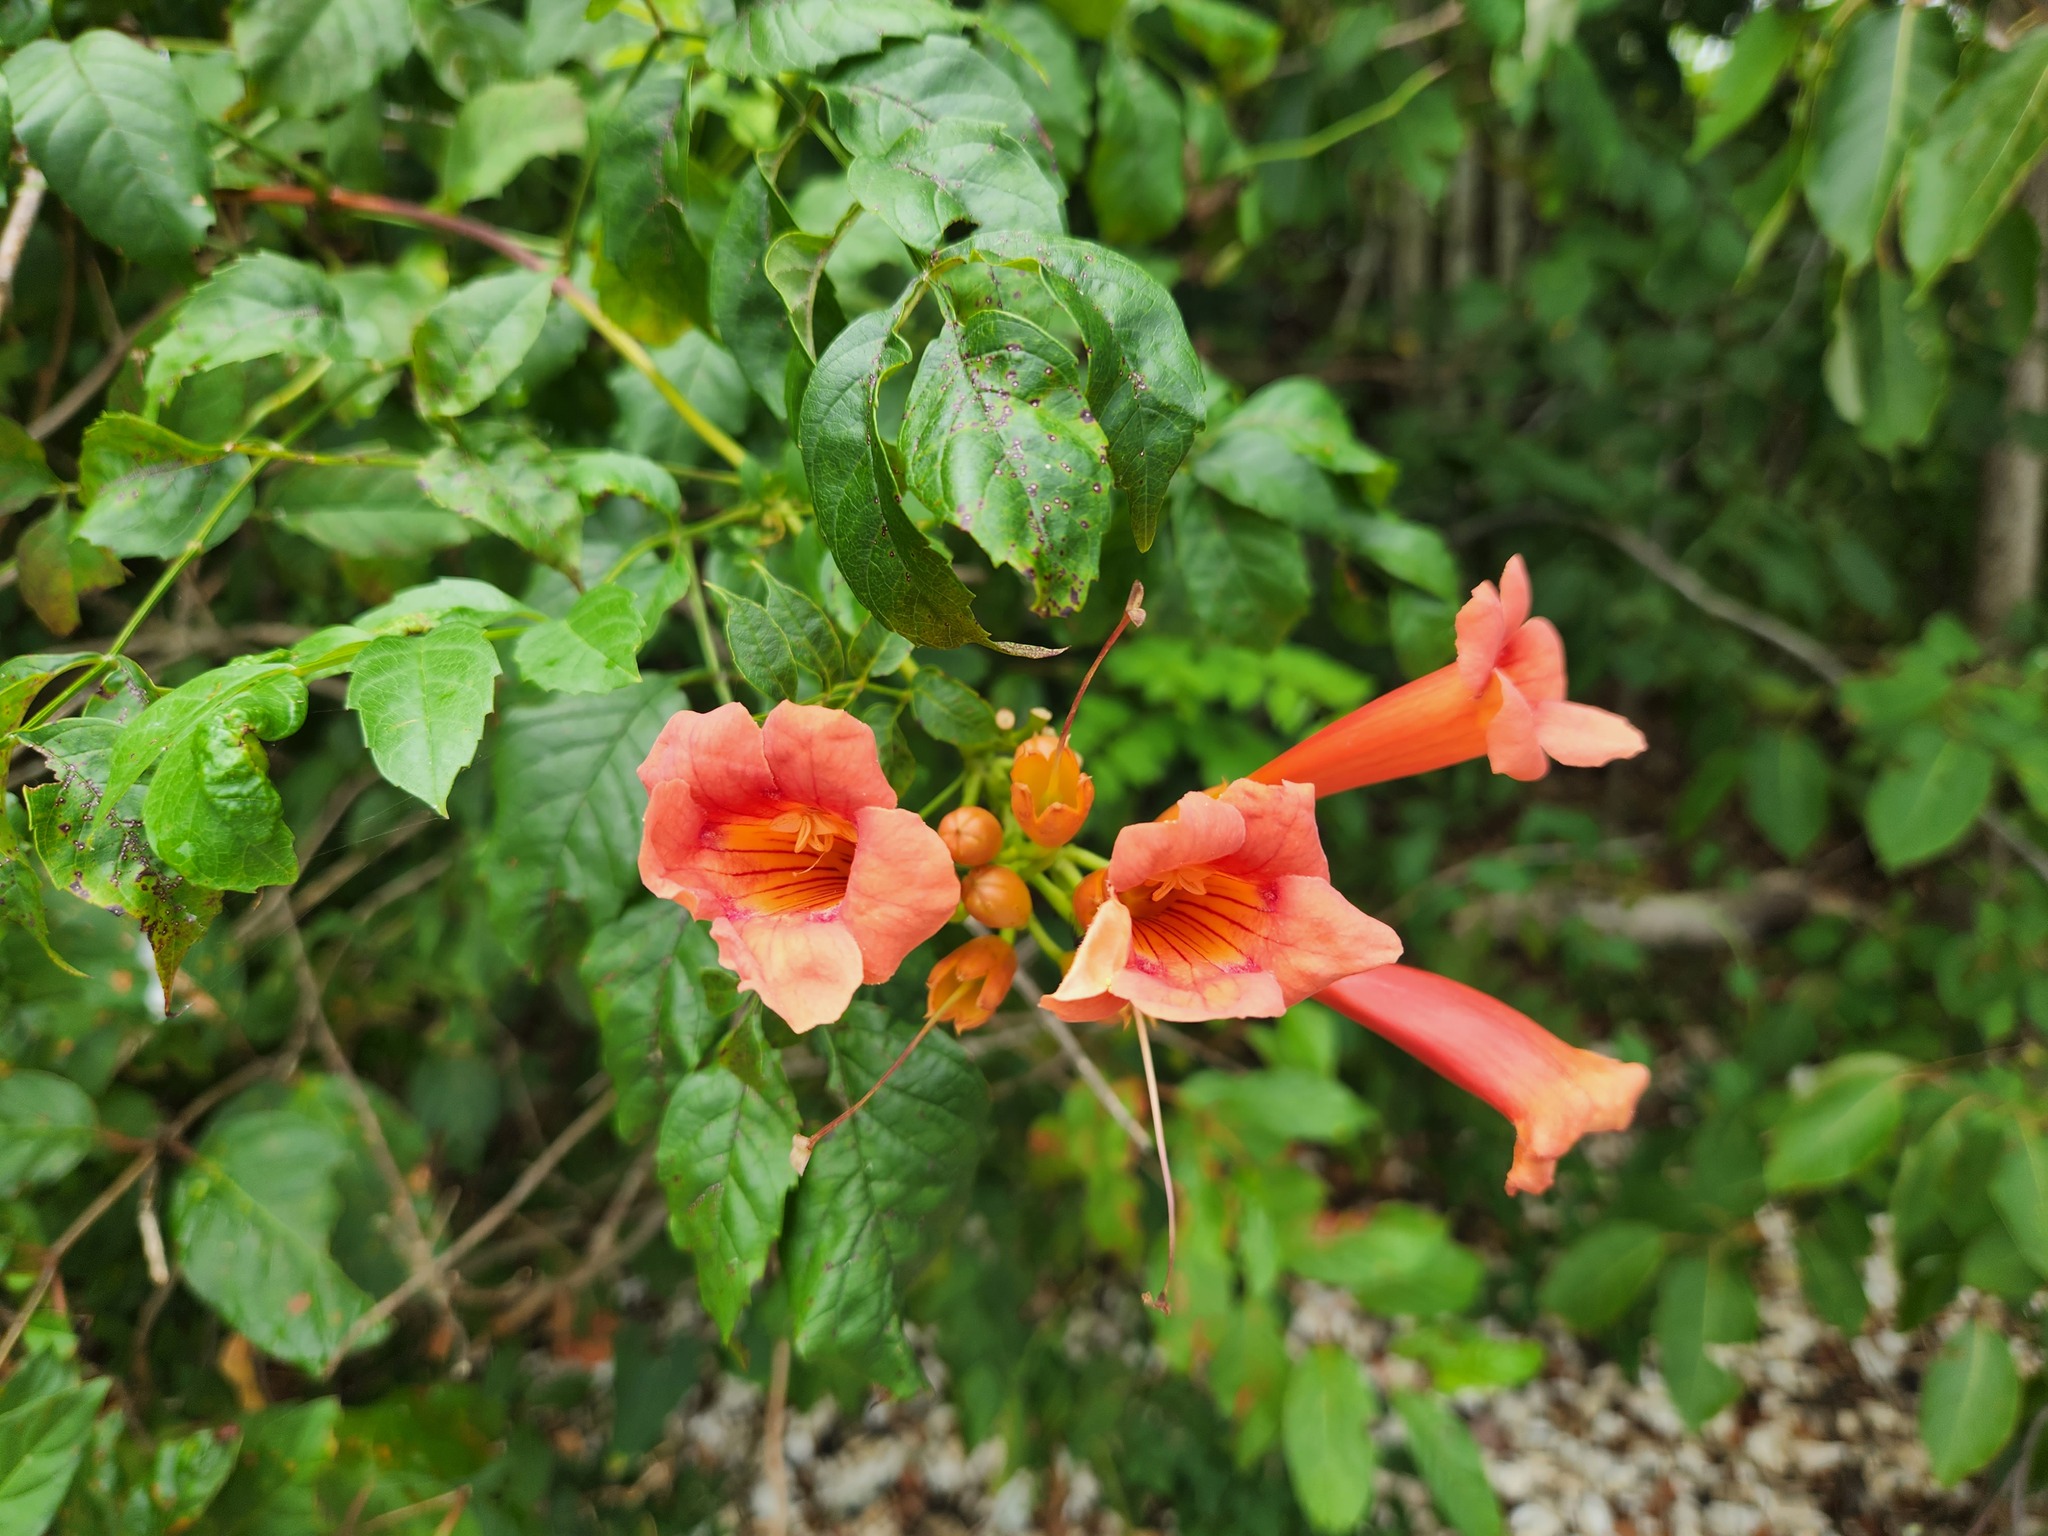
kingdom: Plantae
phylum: Tracheophyta
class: Magnoliopsida
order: Lamiales
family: Bignoniaceae
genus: Campsis
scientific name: Campsis radicans
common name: Trumpet-creeper
